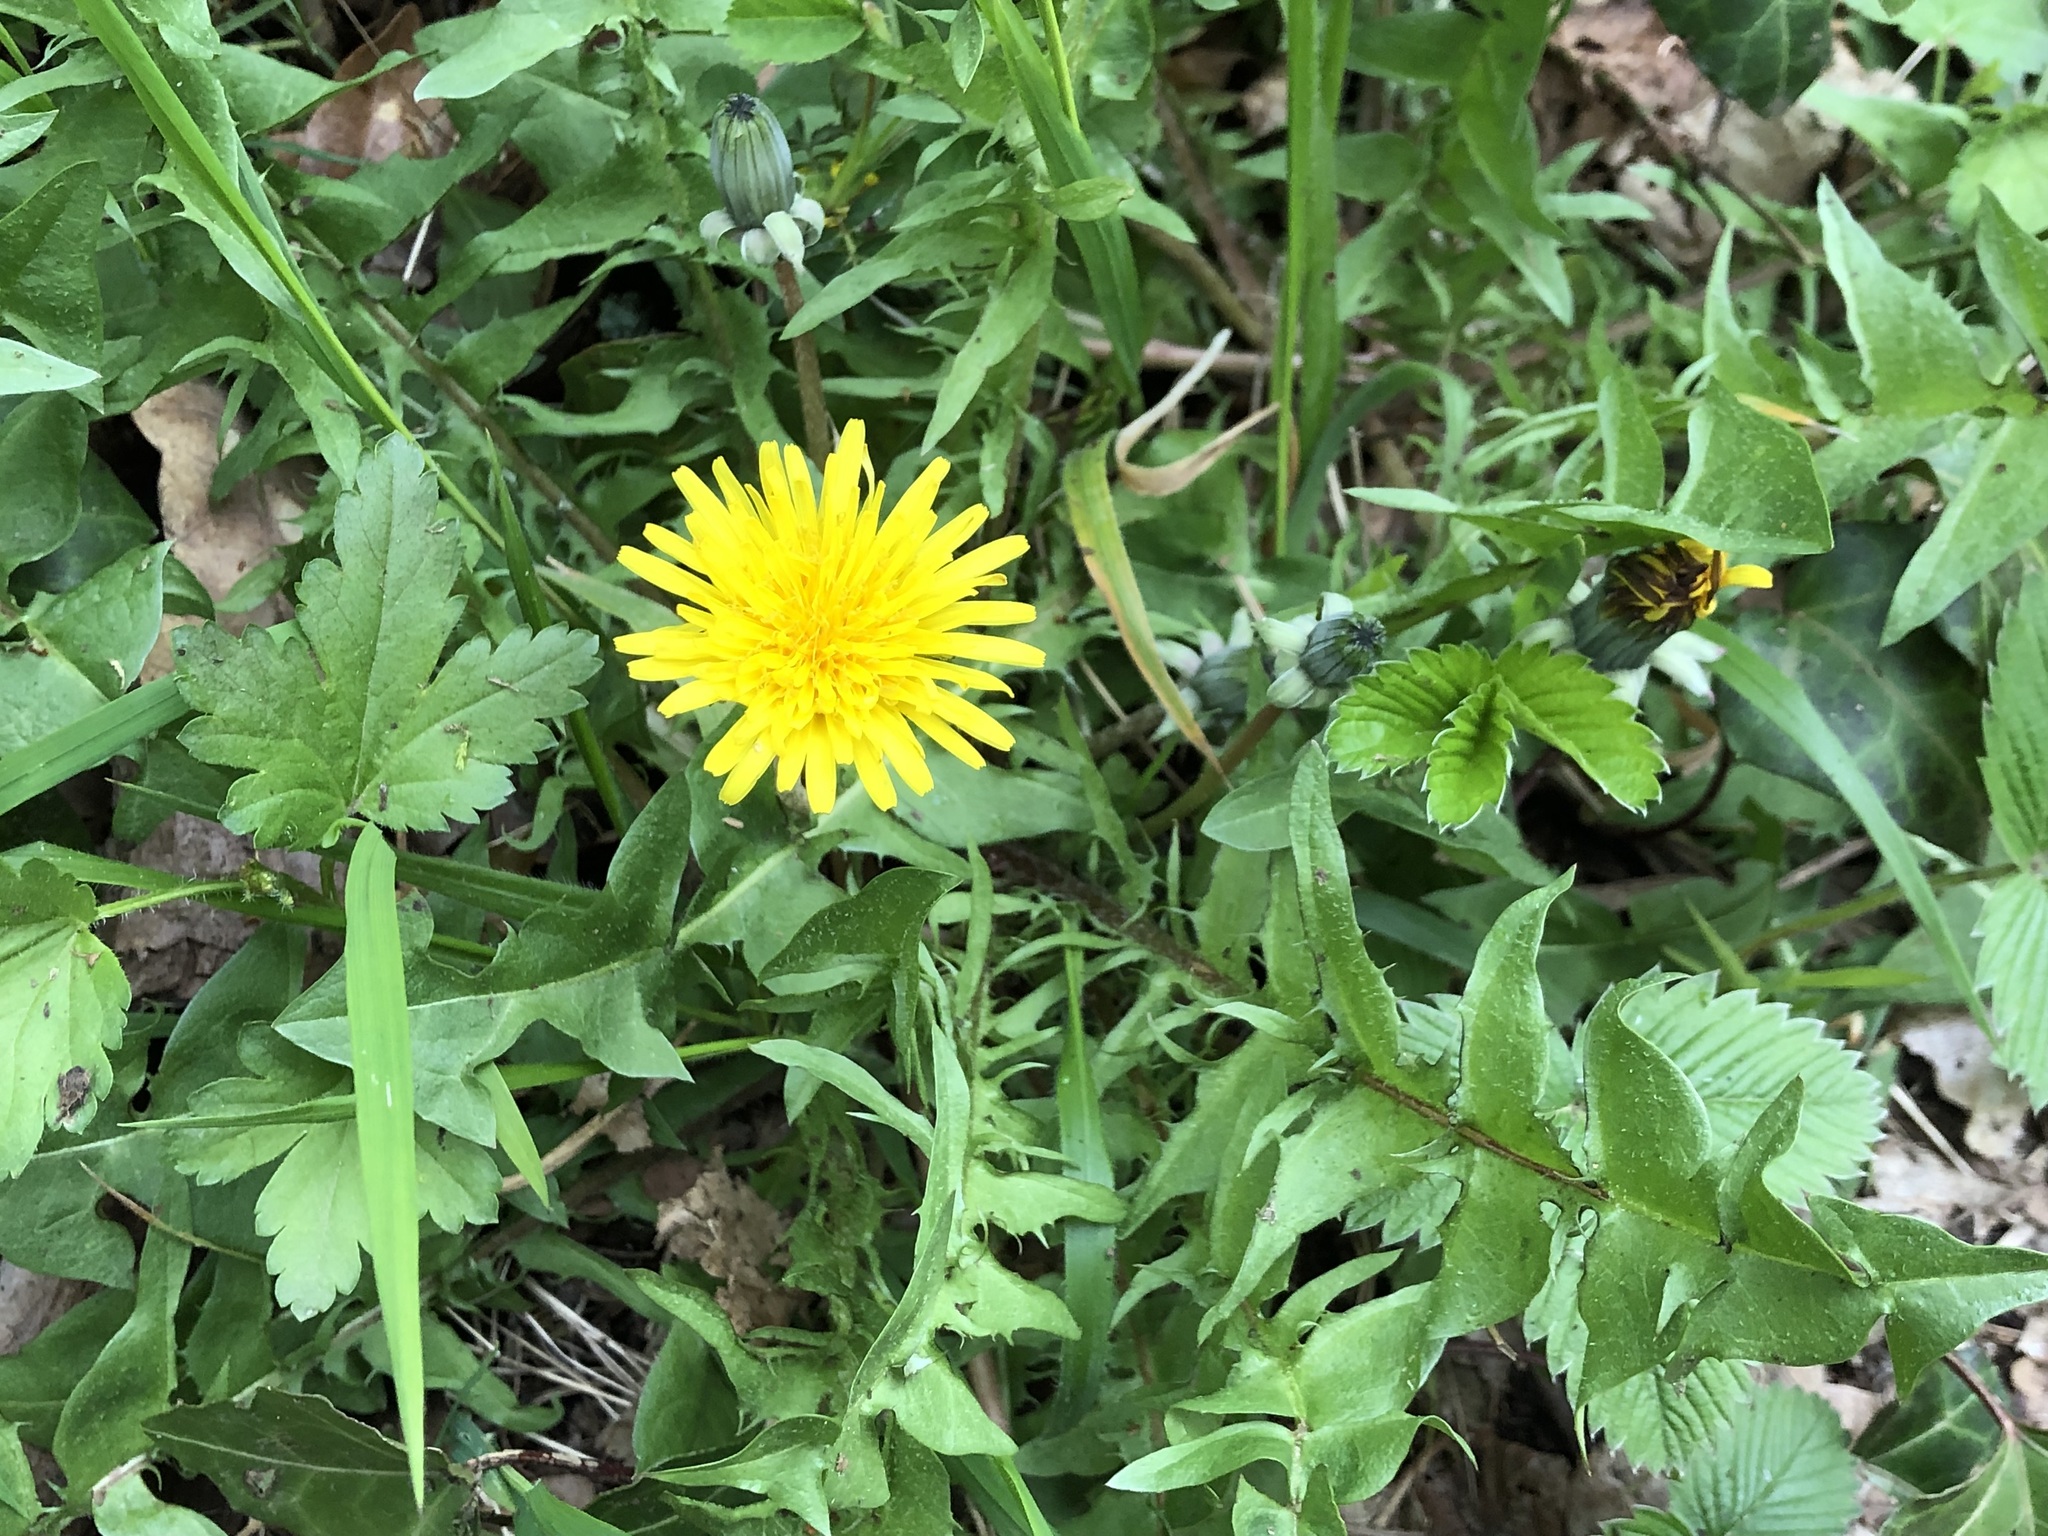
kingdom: Plantae
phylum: Tracheophyta
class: Magnoliopsida
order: Asterales
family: Asteraceae
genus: Taraxacum
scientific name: Taraxacum officinale
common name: Common dandelion
